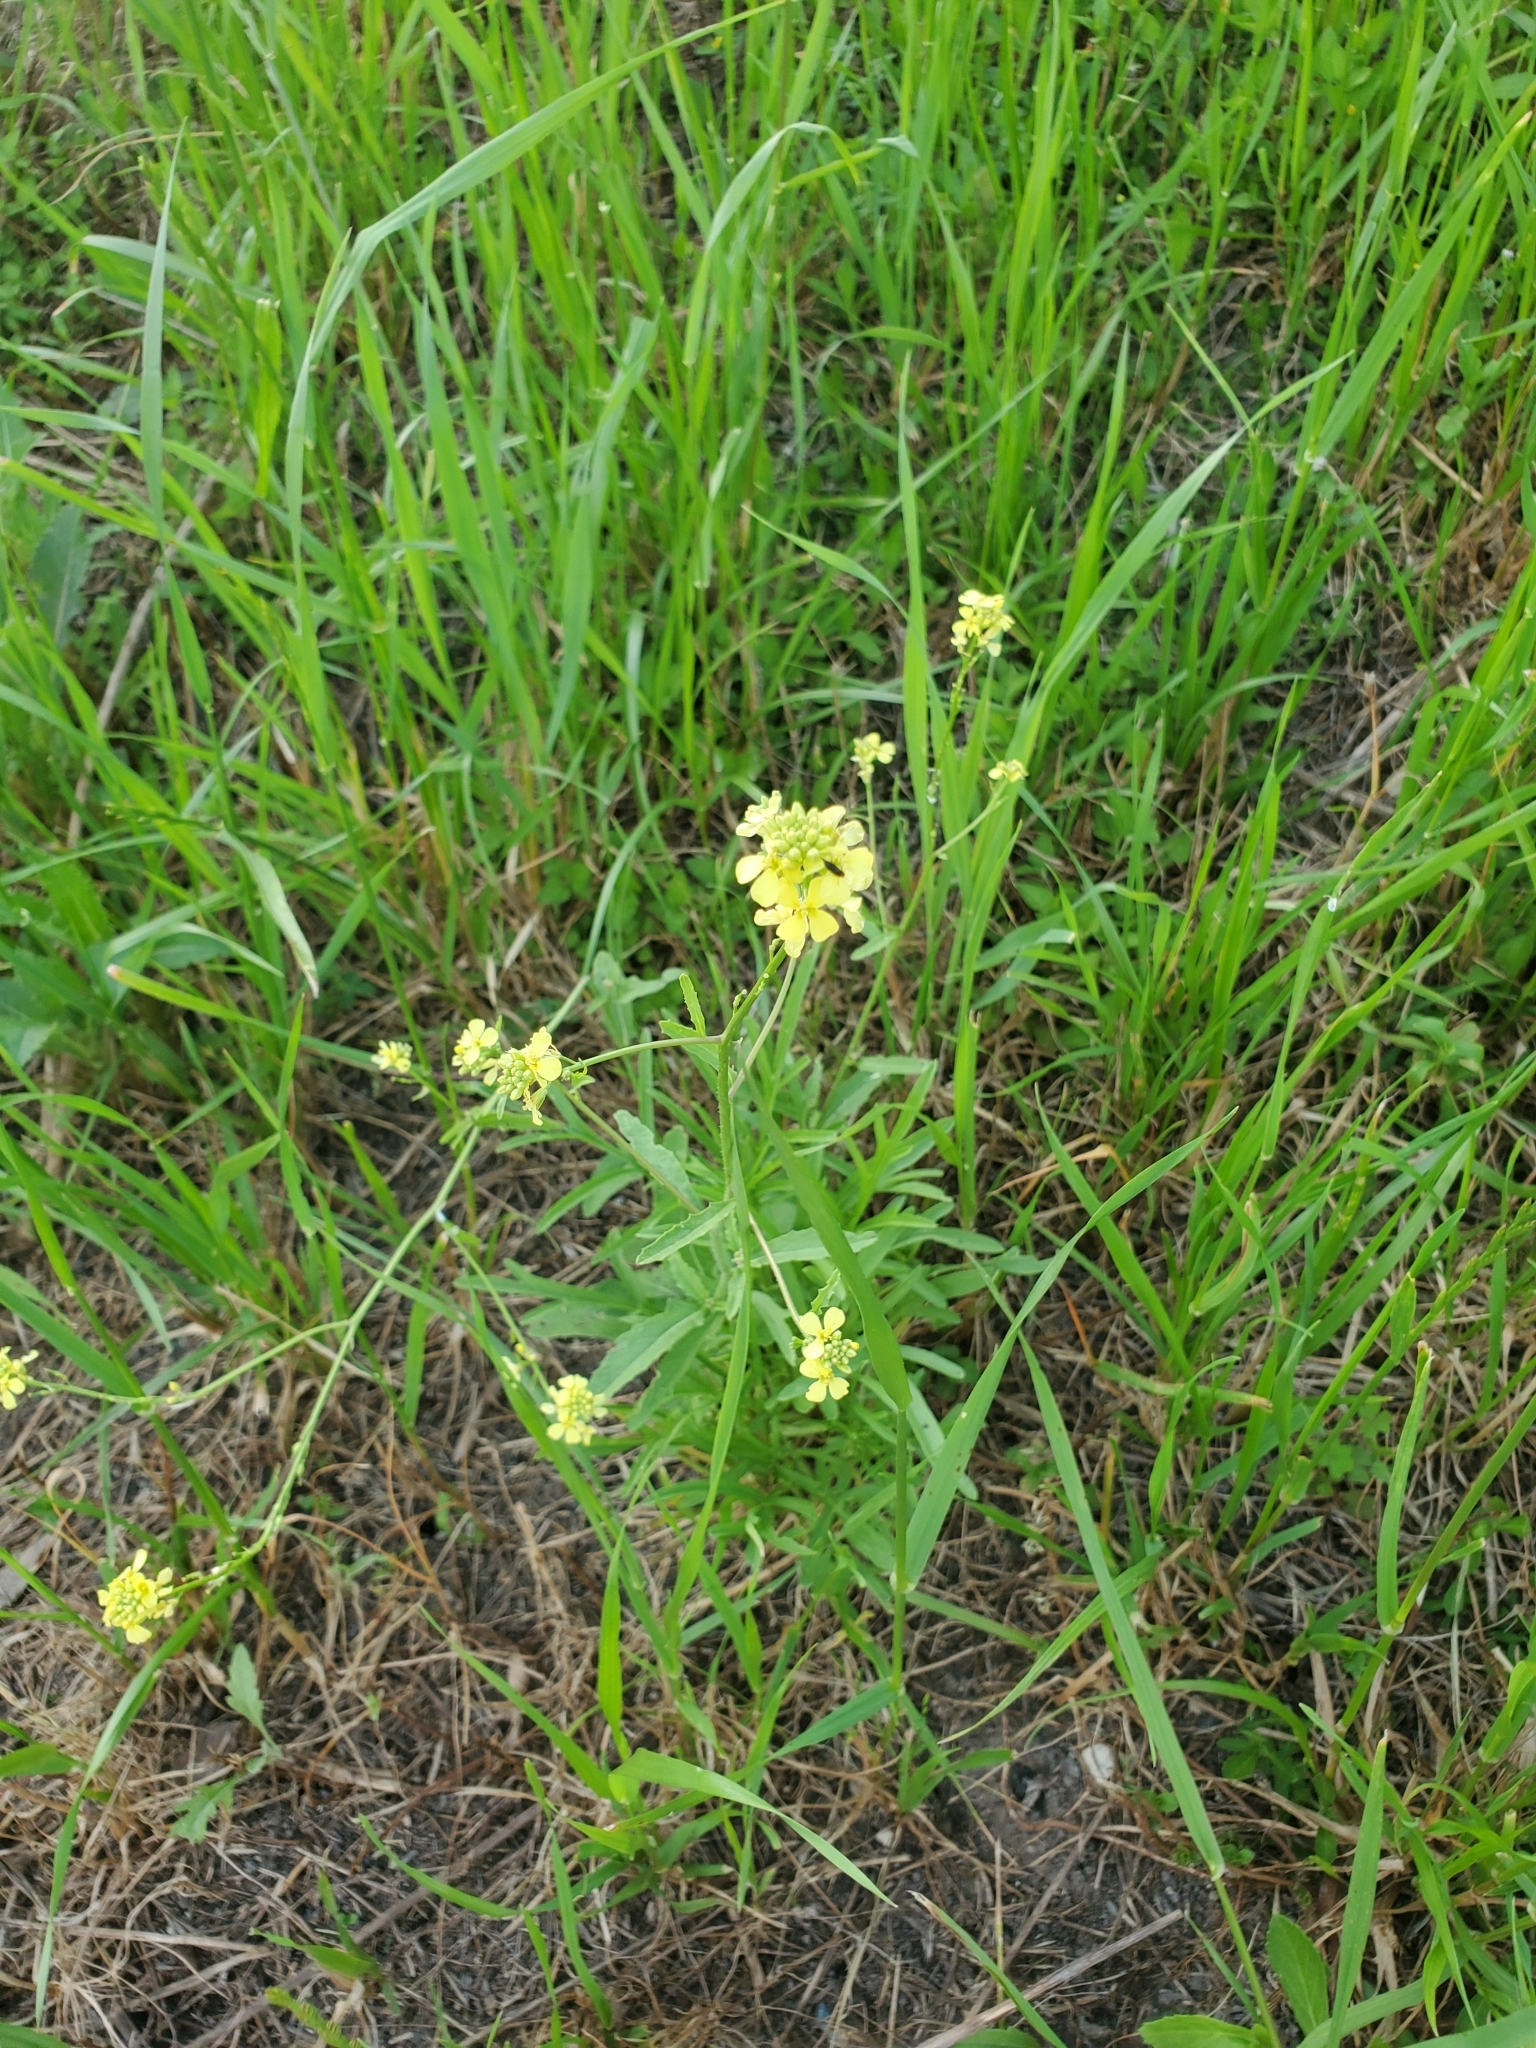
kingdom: Plantae
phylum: Tracheophyta
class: Magnoliopsida
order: Brassicales
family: Brassicaceae
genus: Rapistrum
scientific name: Rapistrum rugosum
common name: Annual bastardcabbage
